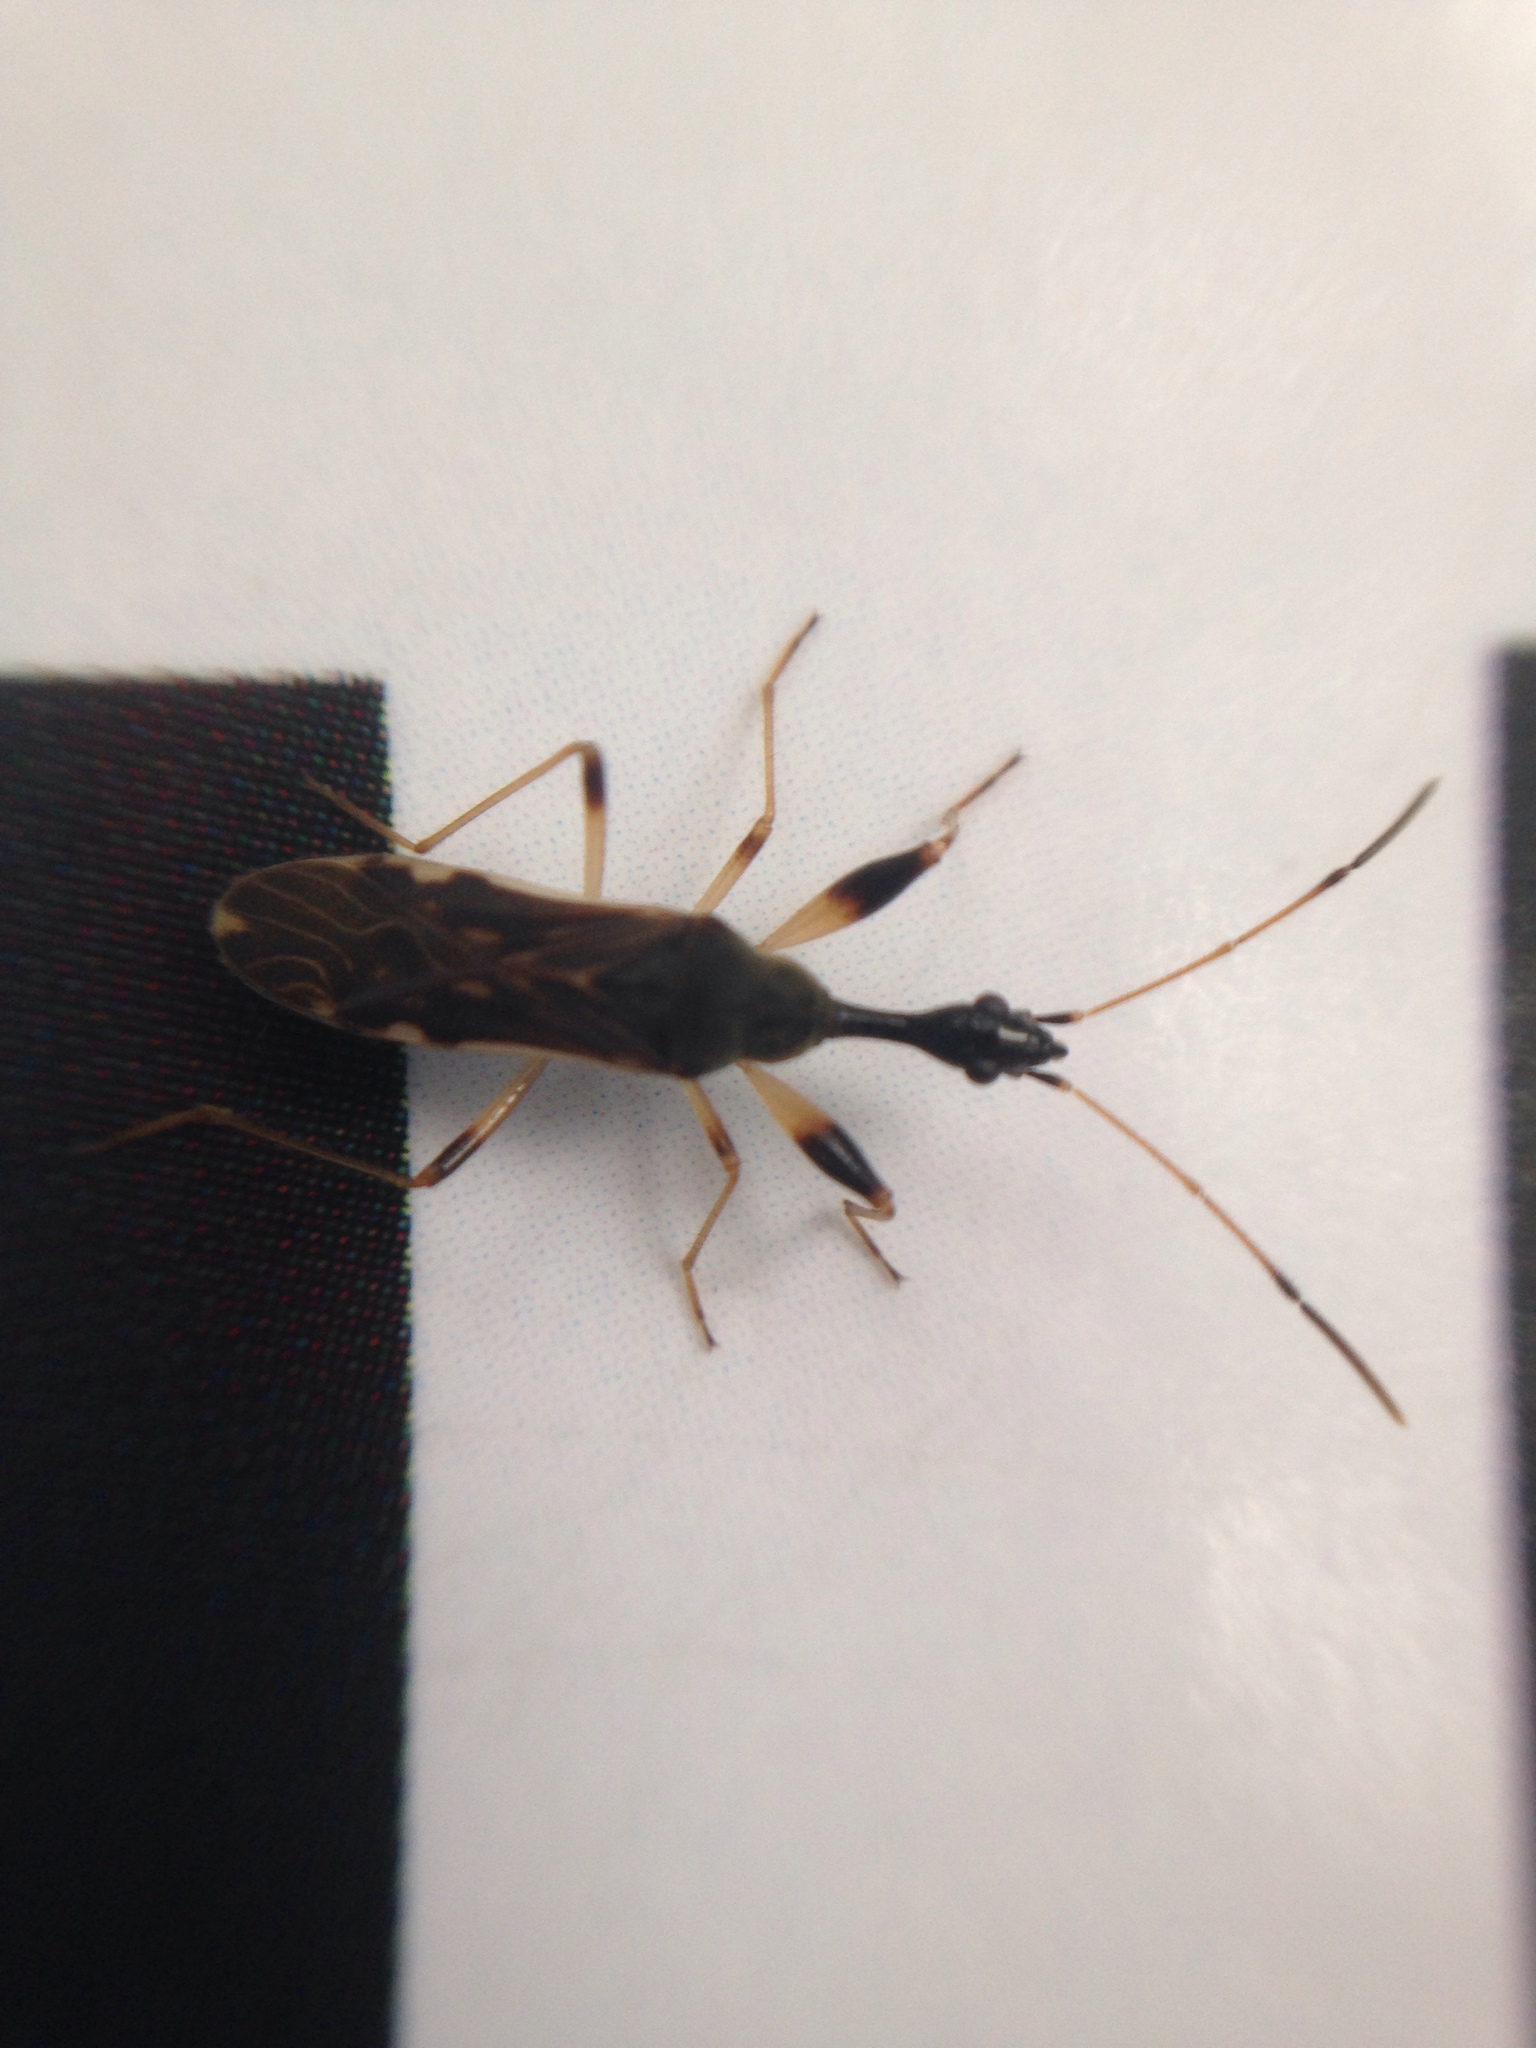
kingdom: Animalia
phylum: Arthropoda
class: Insecta
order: Hemiptera
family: Rhyparochromidae
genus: Myodocha
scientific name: Myodocha serripes
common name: Long-necked seed bug
